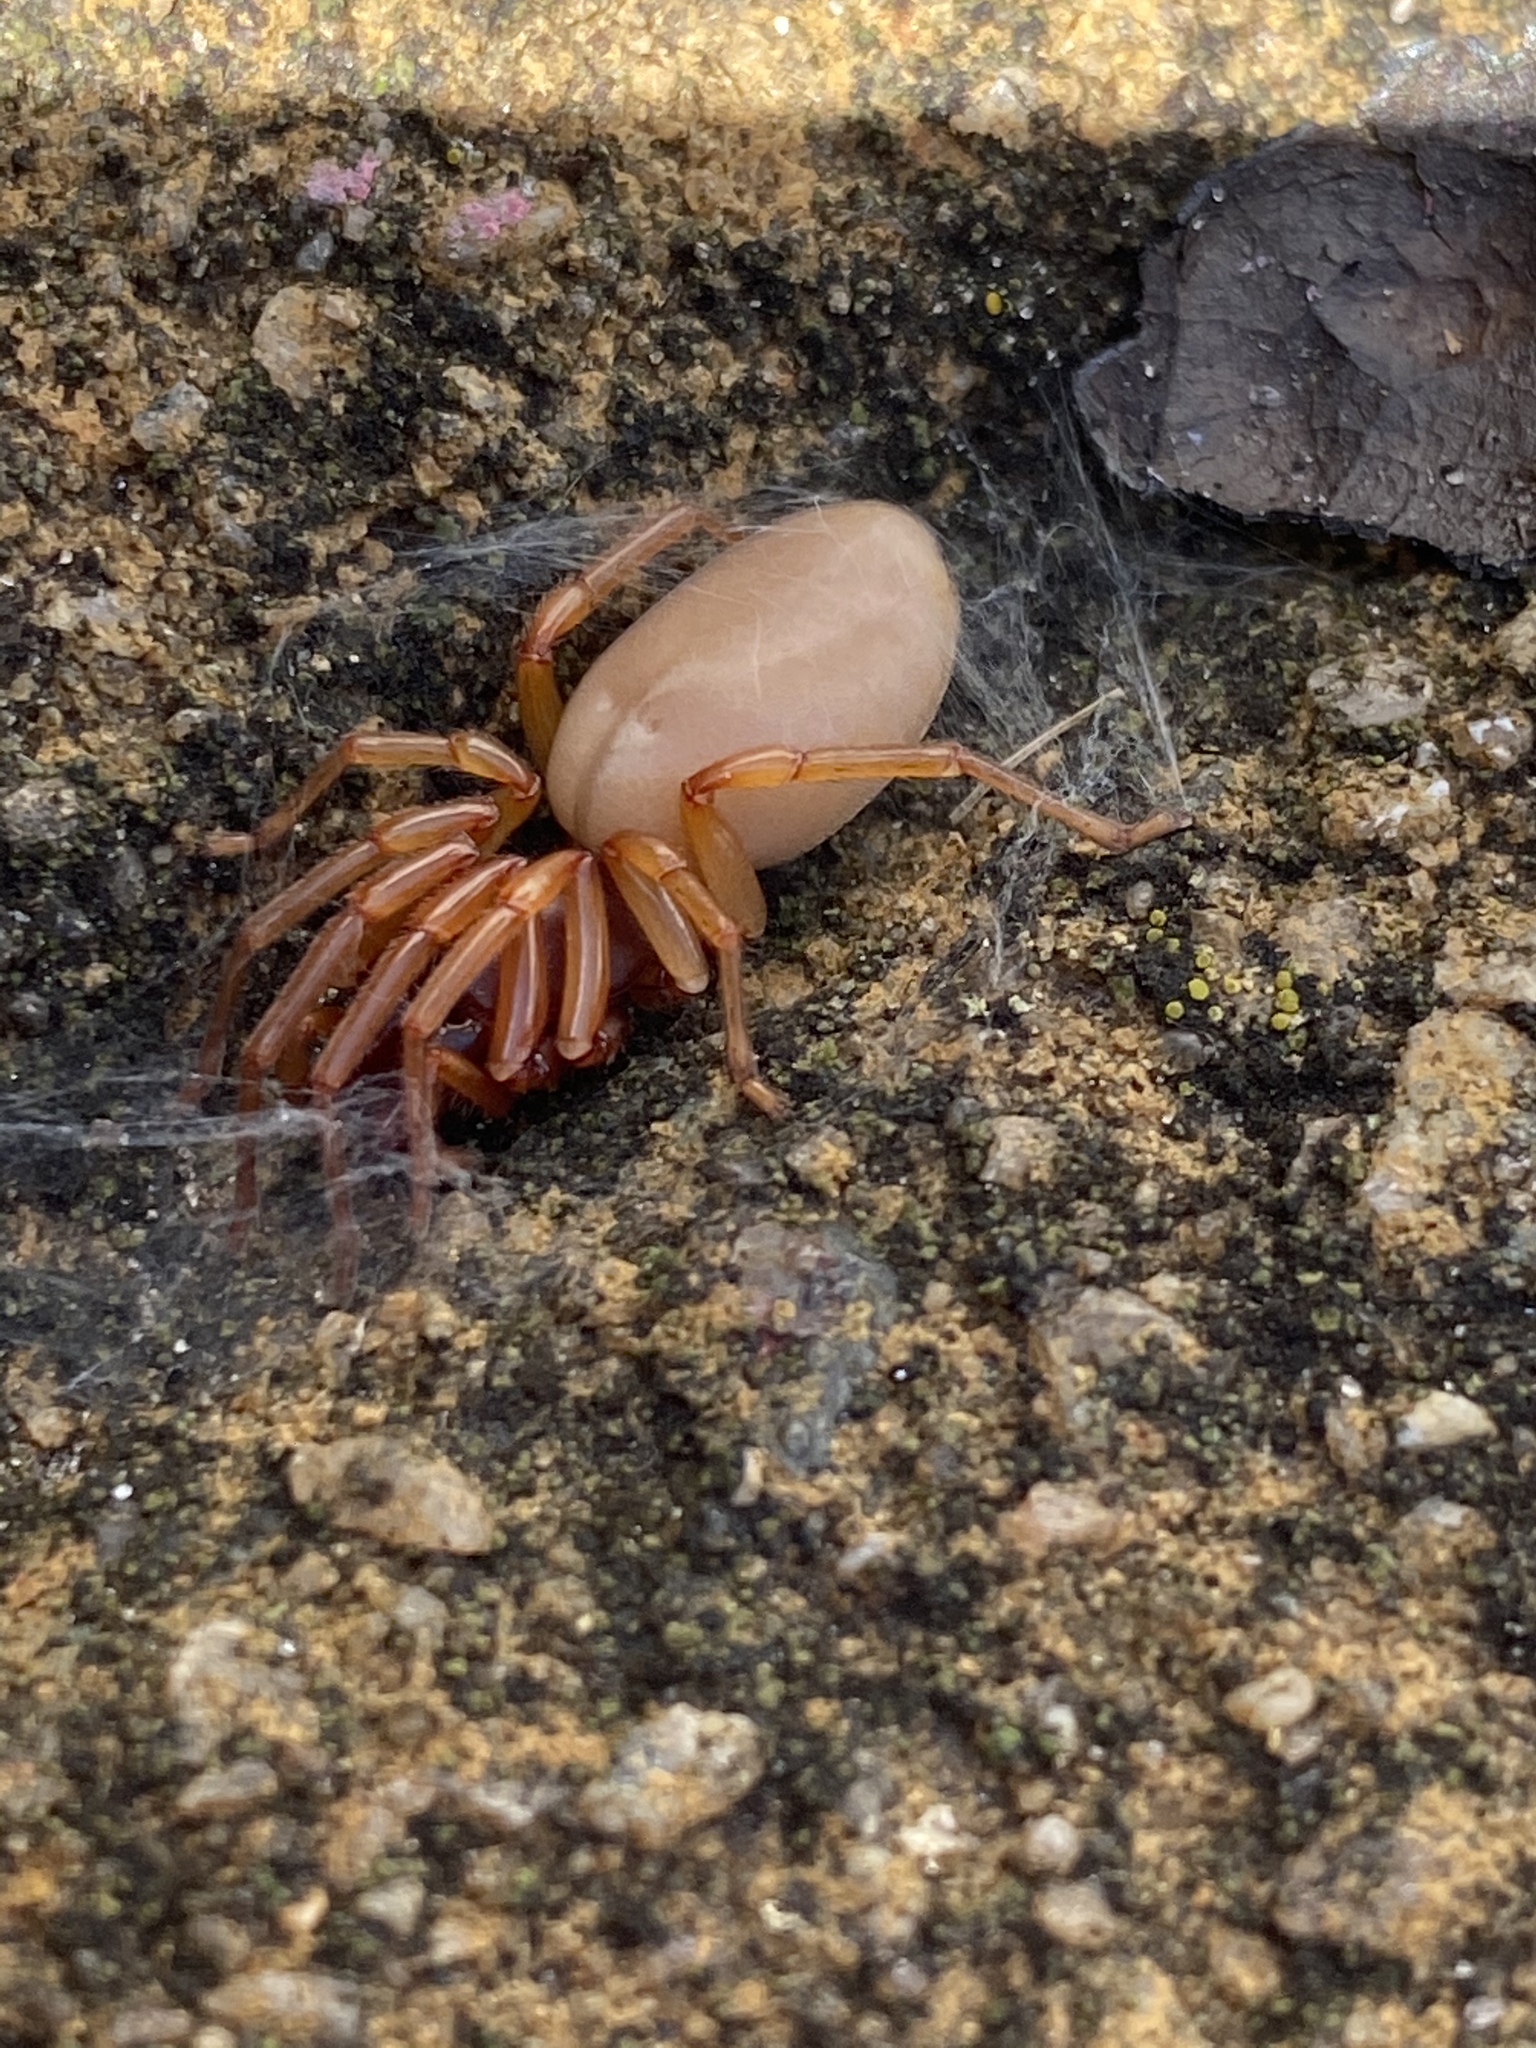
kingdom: Animalia
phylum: Arthropoda
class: Arachnida
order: Araneae
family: Dysderidae
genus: Dysdera
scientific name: Dysdera crocata
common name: Woodlouse spider
